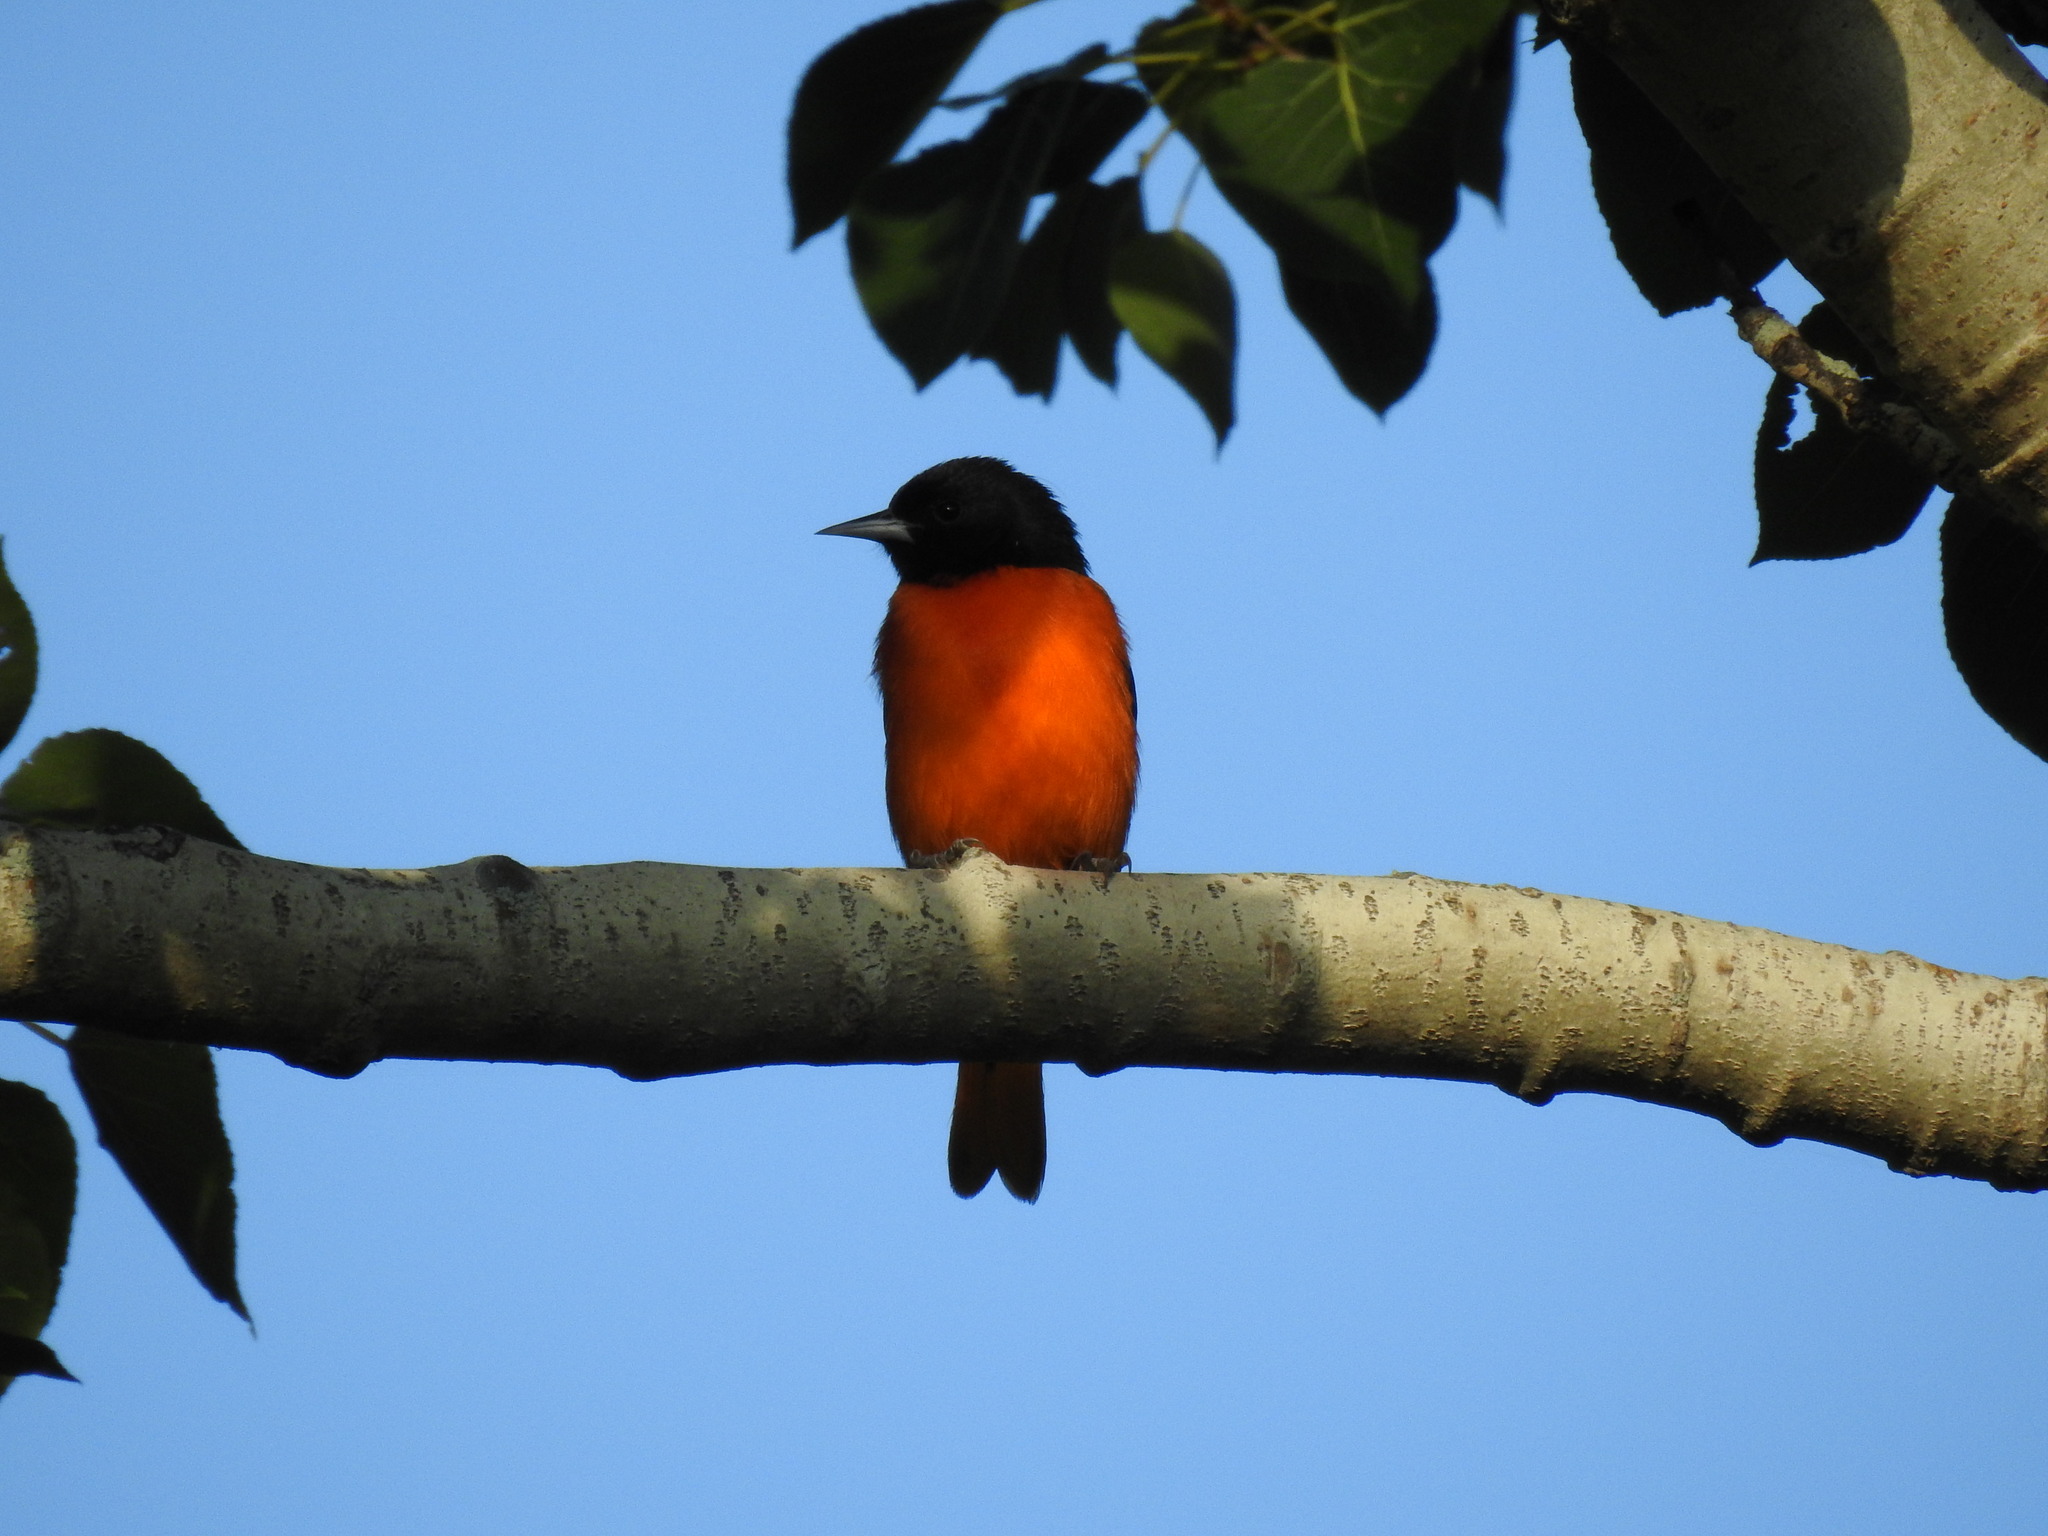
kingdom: Animalia
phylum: Chordata
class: Aves
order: Passeriformes
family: Icteridae
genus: Icterus
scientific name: Icterus galbula
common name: Baltimore oriole
